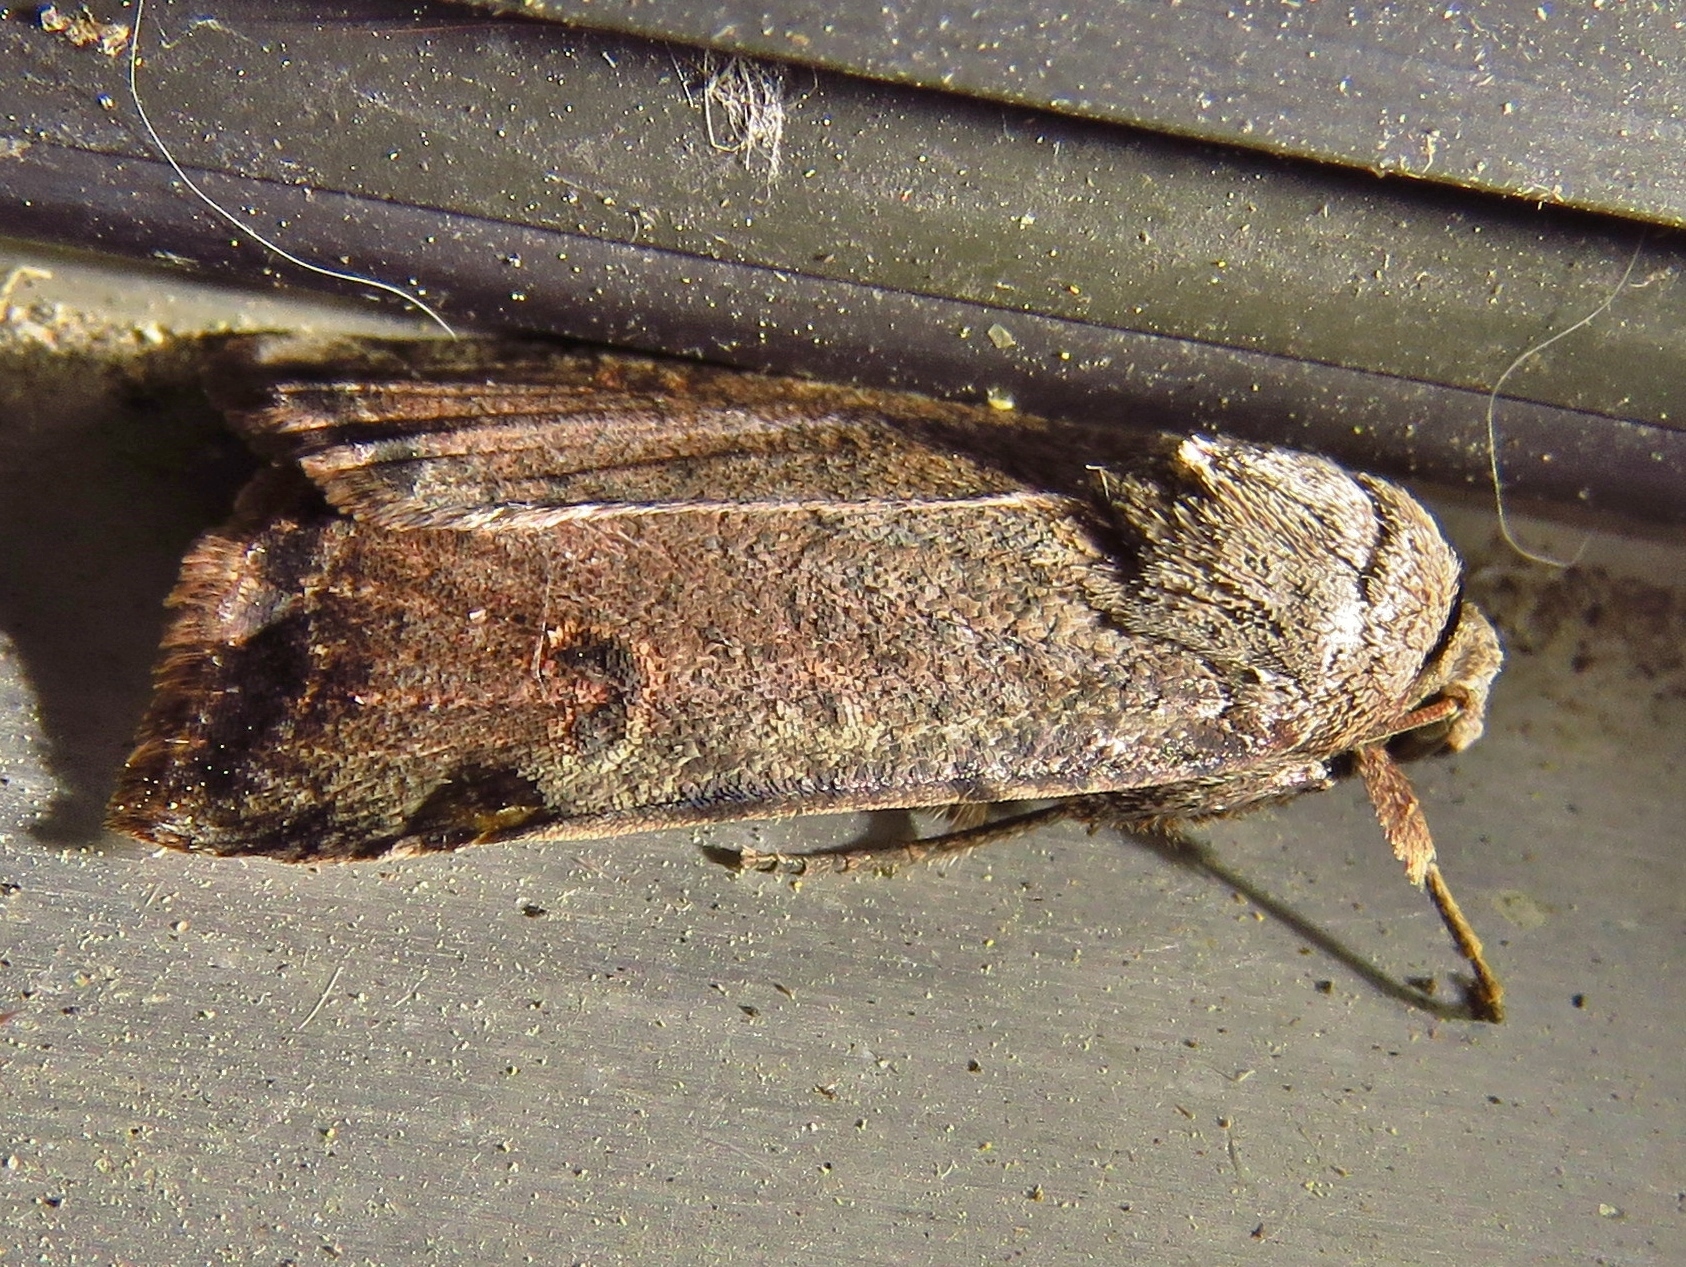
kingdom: Animalia
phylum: Arthropoda
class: Insecta
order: Lepidoptera
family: Noctuidae
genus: Anicla
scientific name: Anicla infecta
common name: Green cutworm
